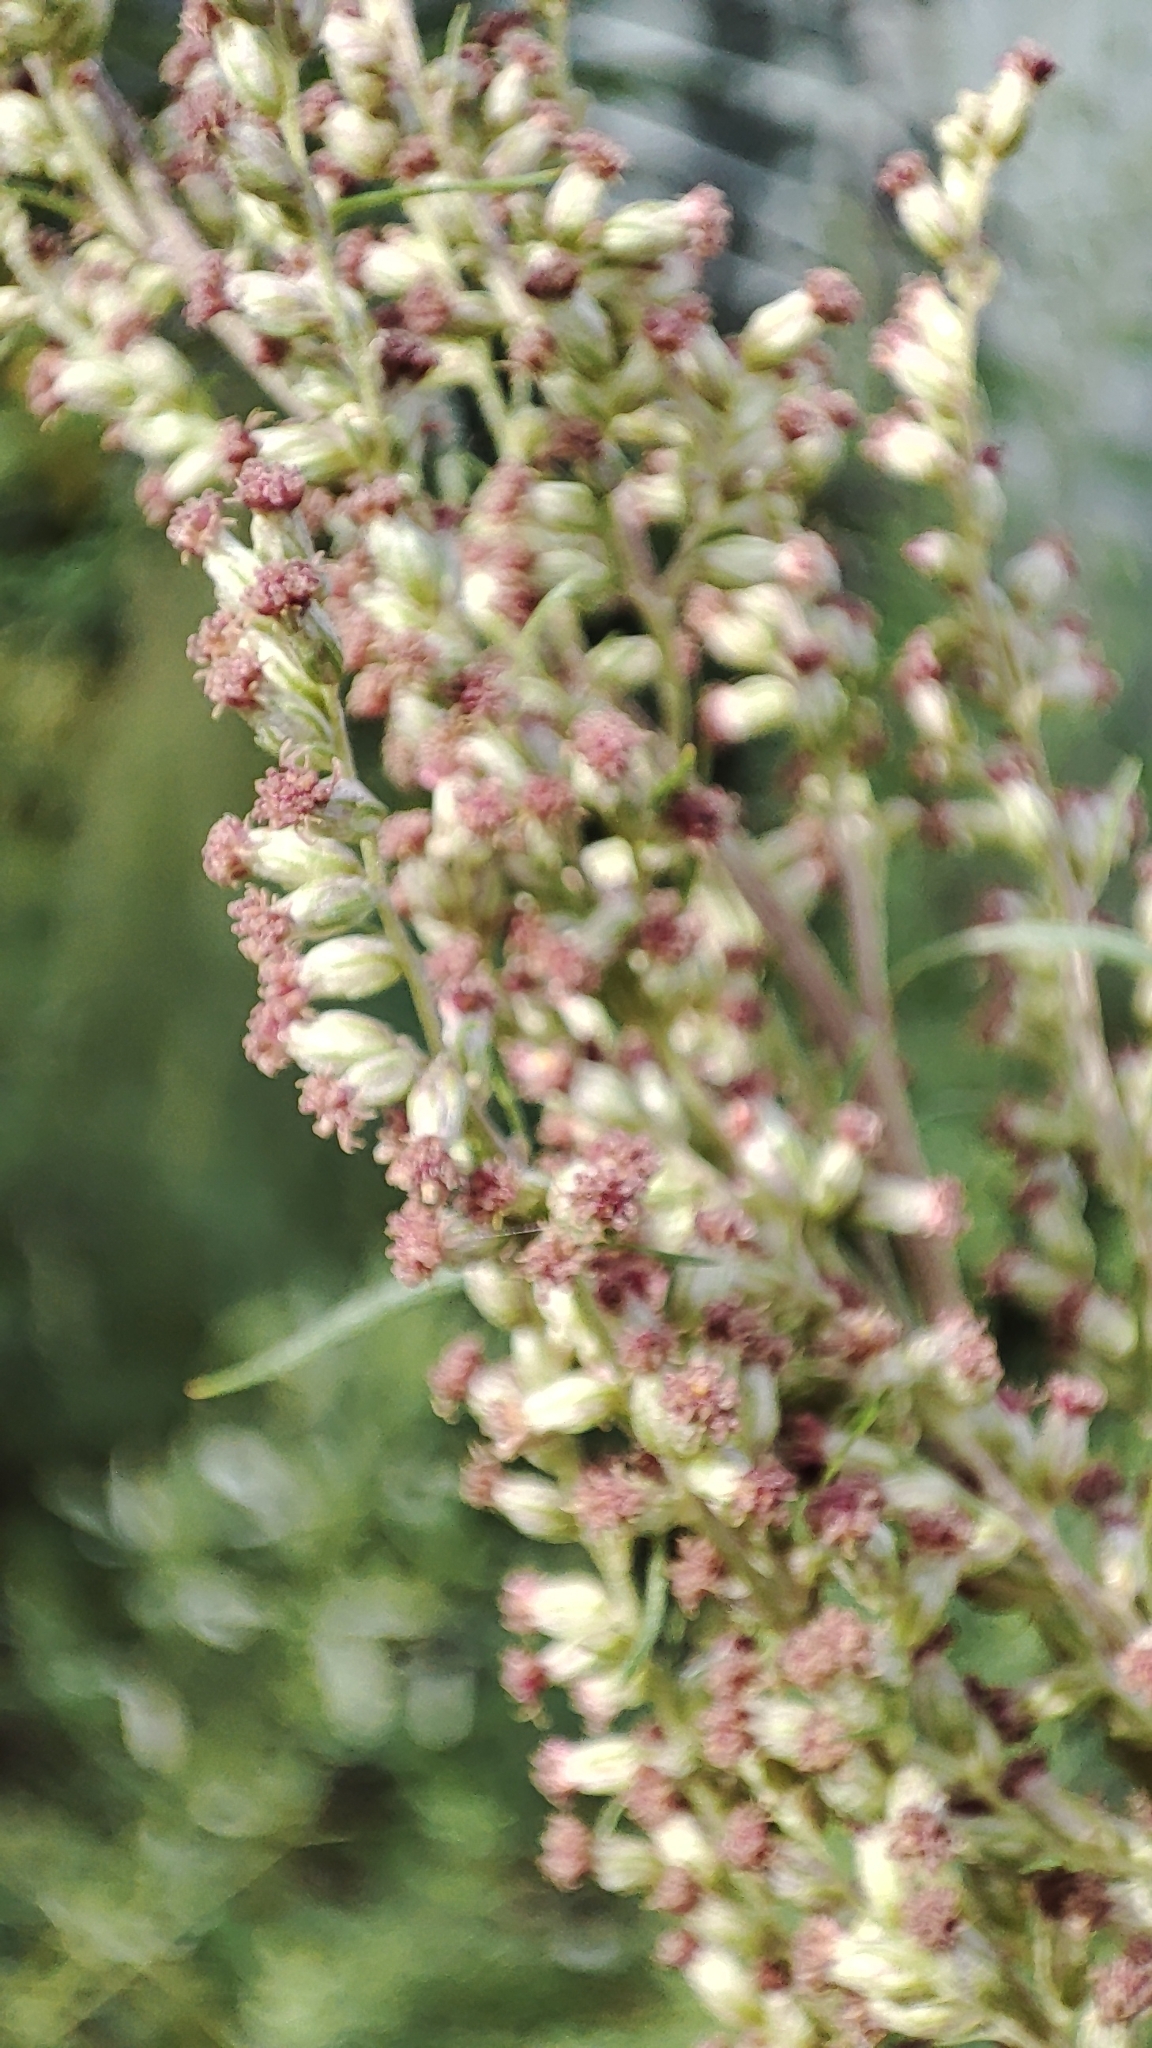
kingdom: Plantae
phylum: Tracheophyta
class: Magnoliopsida
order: Asterales
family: Asteraceae
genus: Artemisia
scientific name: Artemisia vulgaris
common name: Mugwort
